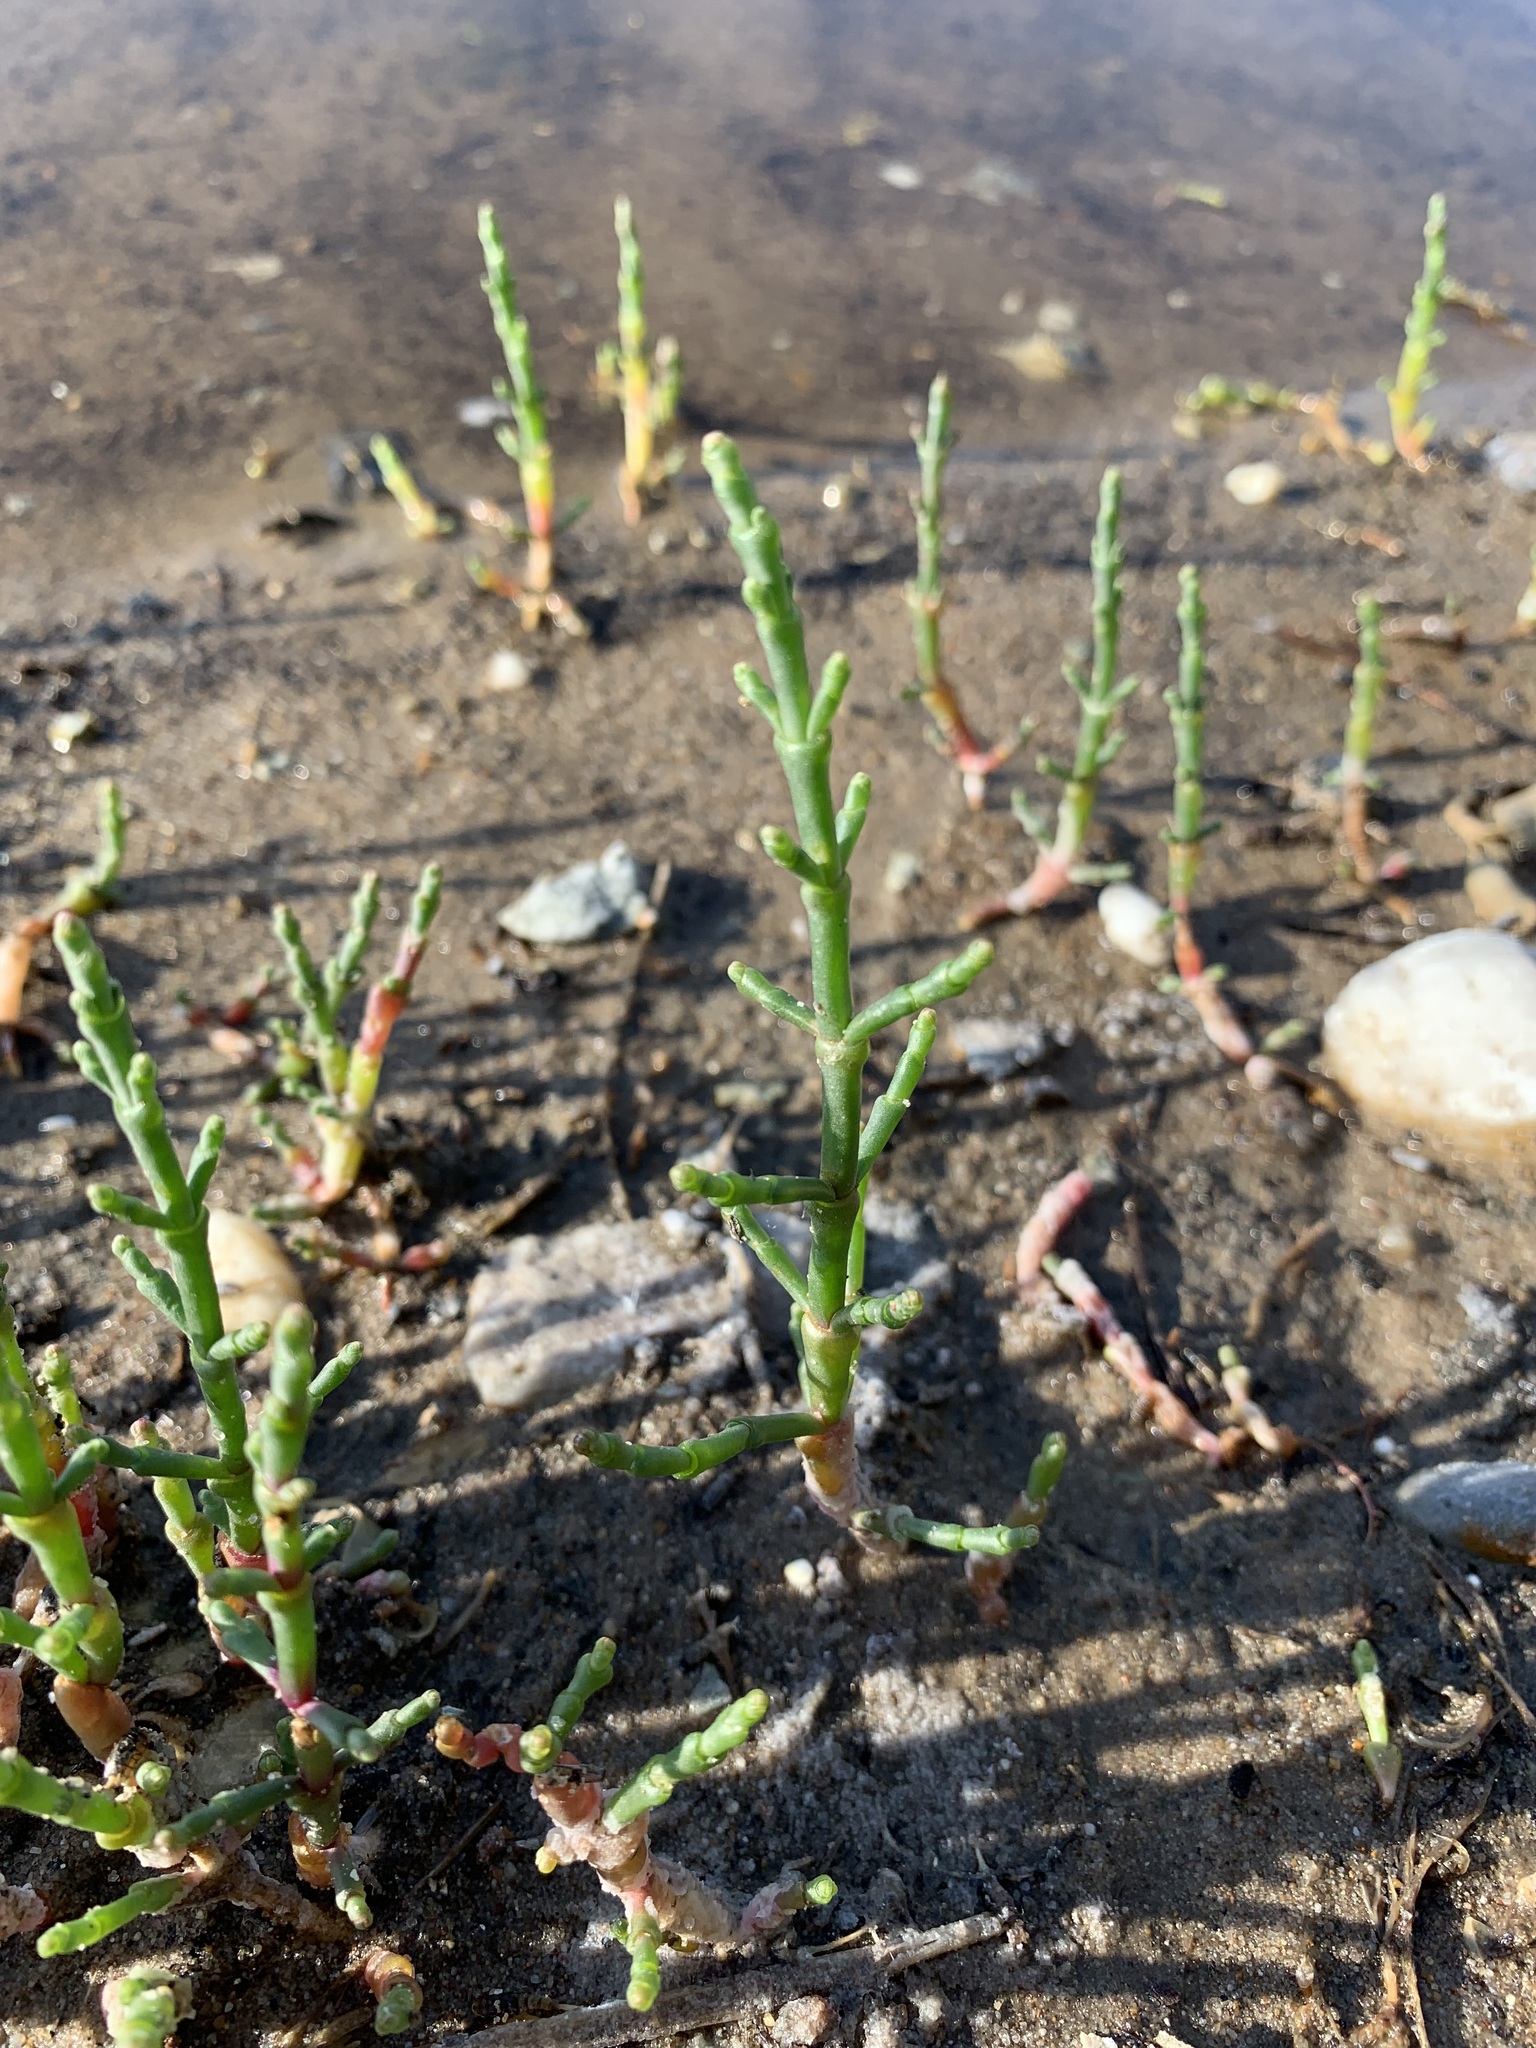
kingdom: Plantae
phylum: Tracheophyta
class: Magnoliopsida
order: Caryophyllales
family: Amaranthaceae
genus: Salicornia
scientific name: Salicornia perennans
